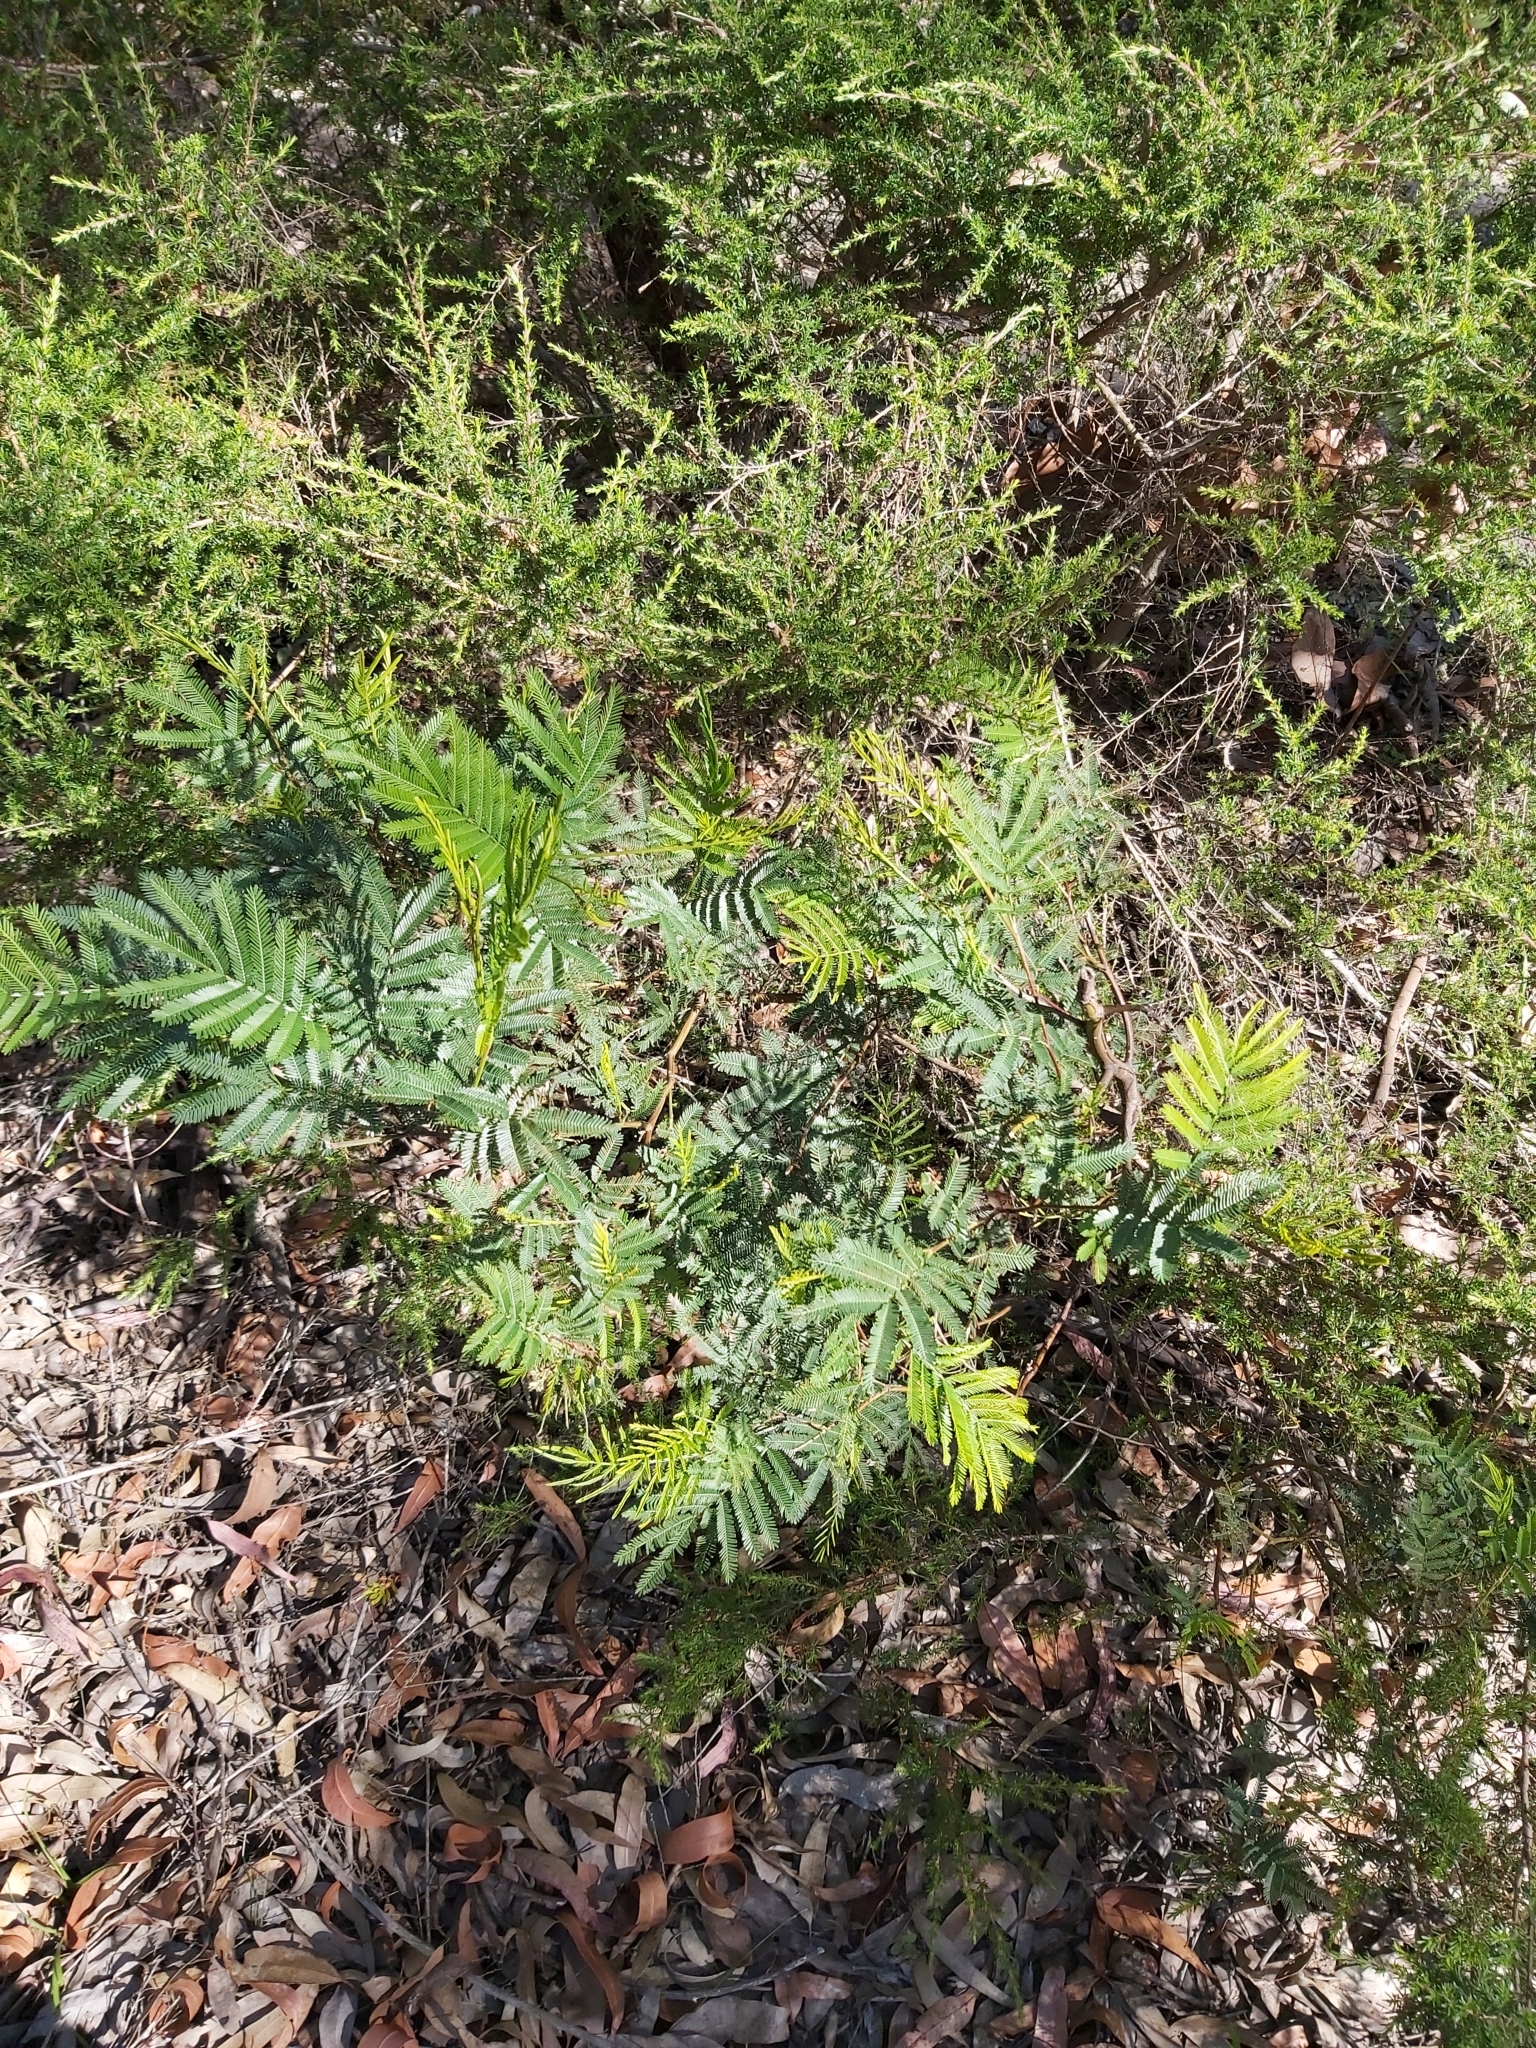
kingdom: Plantae
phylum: Tracheophyta
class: Magnoliopsida
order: Fabales
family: Fabaceae
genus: Acacia
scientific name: Acacia parramattensis
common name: Sydney green wattle
